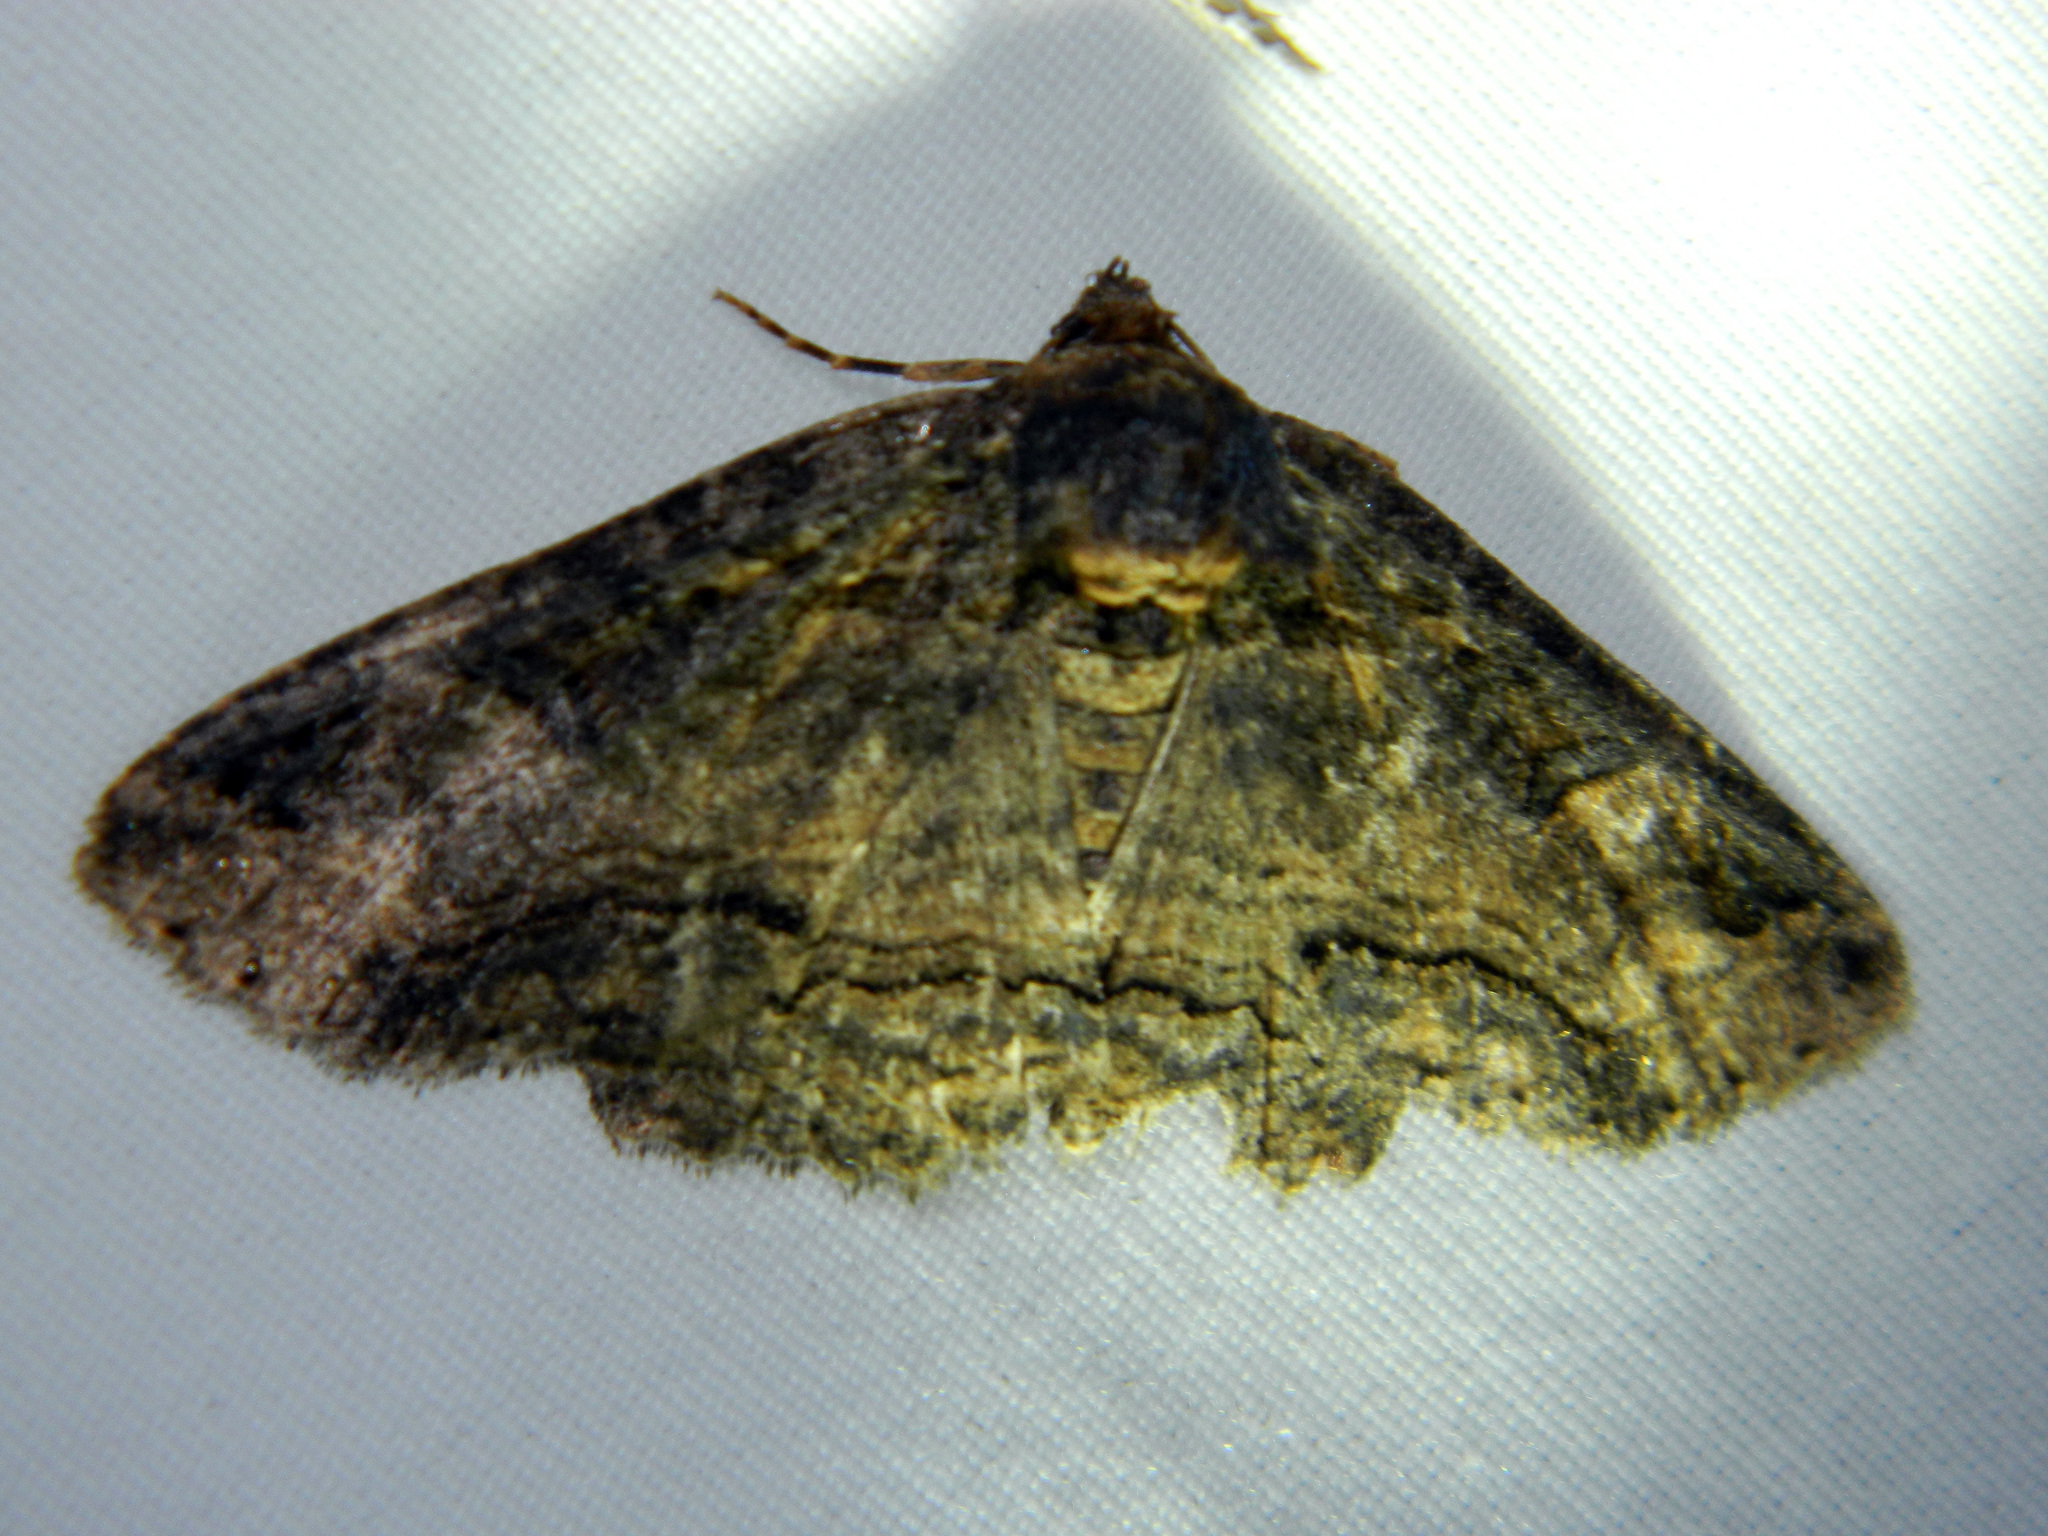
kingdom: Animalia
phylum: Arthropoda
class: Insecta
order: Lepidoptera
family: Erebidae
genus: Zale
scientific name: Zale minerea
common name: Colorful zale moth
